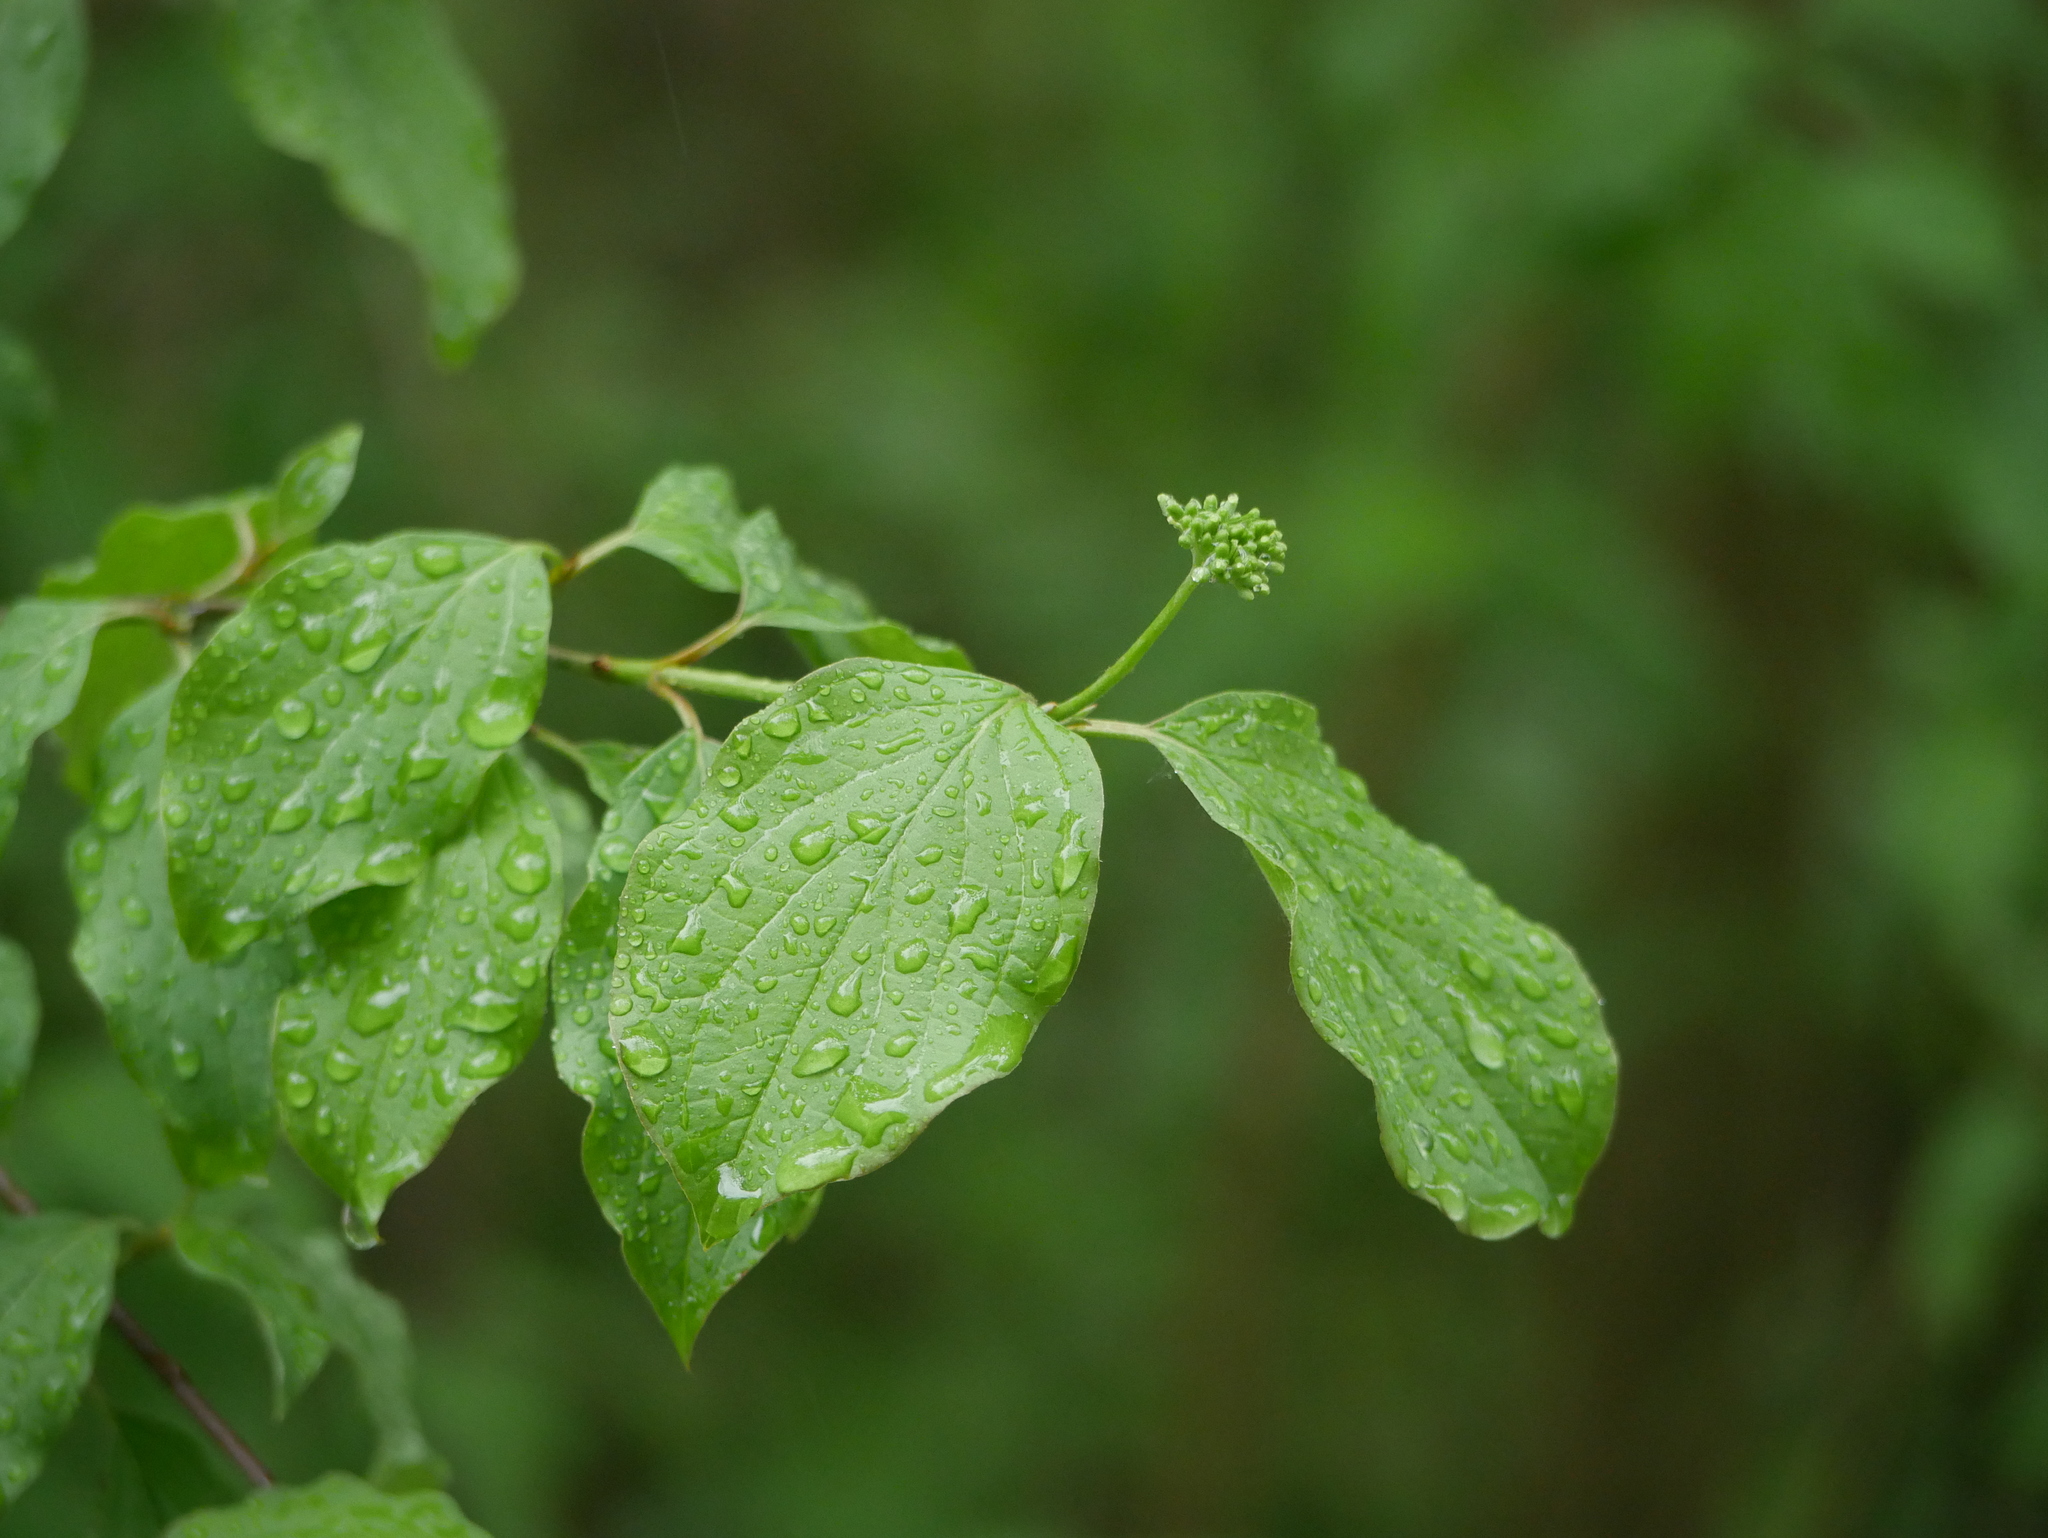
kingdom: Plantae
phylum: Tracheophyta
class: Magnoliopsida
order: Cornales
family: Cornaceae
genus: Cornus
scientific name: Cornus sanguinea
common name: Dogwood
